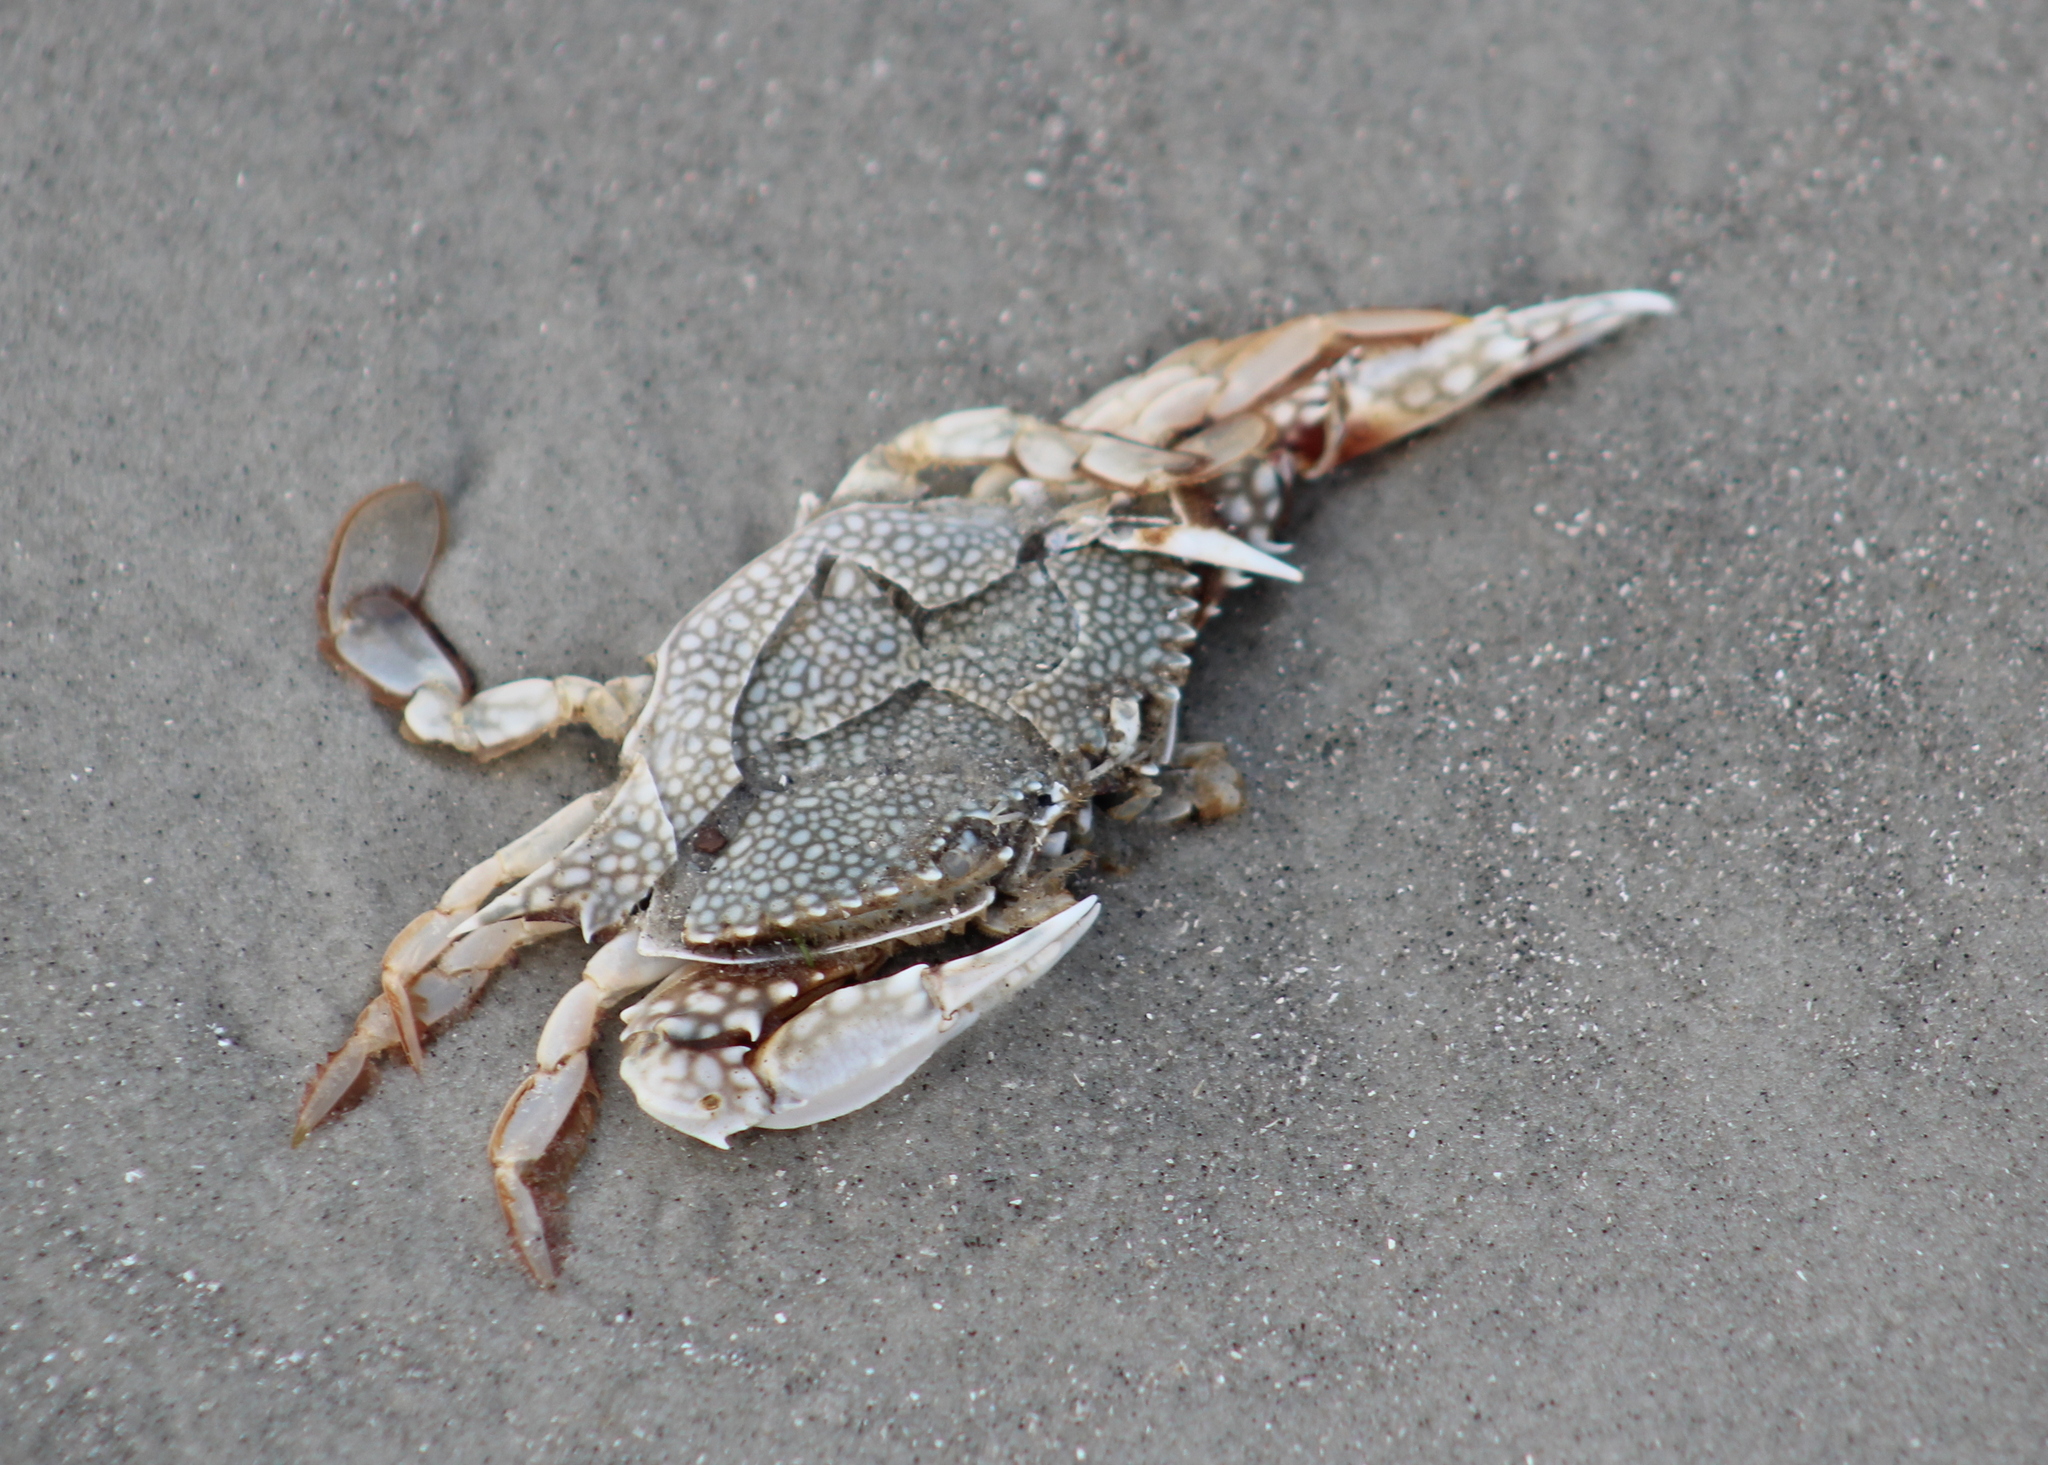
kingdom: Animalia
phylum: Arthropoda
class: Malacostraca
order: Decapoda
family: Portunidae
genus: Arenaeus
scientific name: Arenaeus cribrarius
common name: Speckled crab
